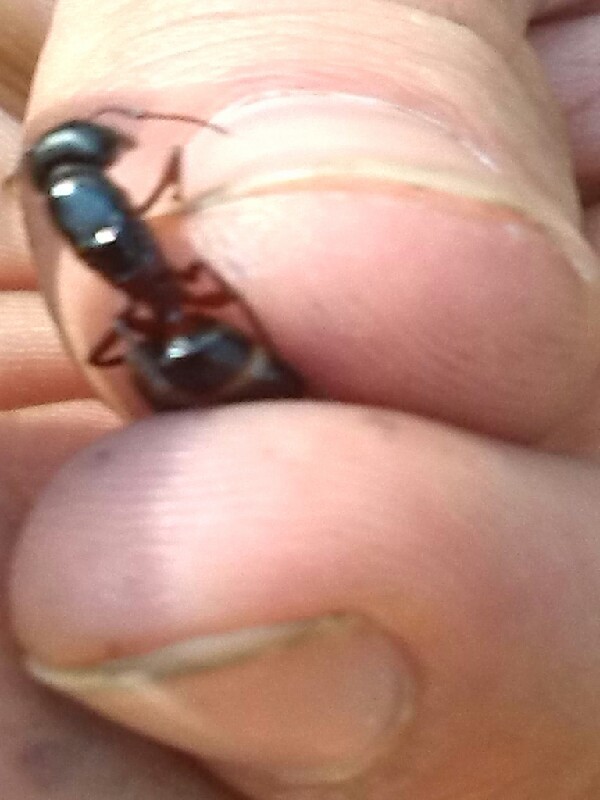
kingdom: Animalia
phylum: Arthropoda
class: Insecta
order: Hymenoptera
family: Formicidae
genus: Camponotus
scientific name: Camponotus ligniperdus
